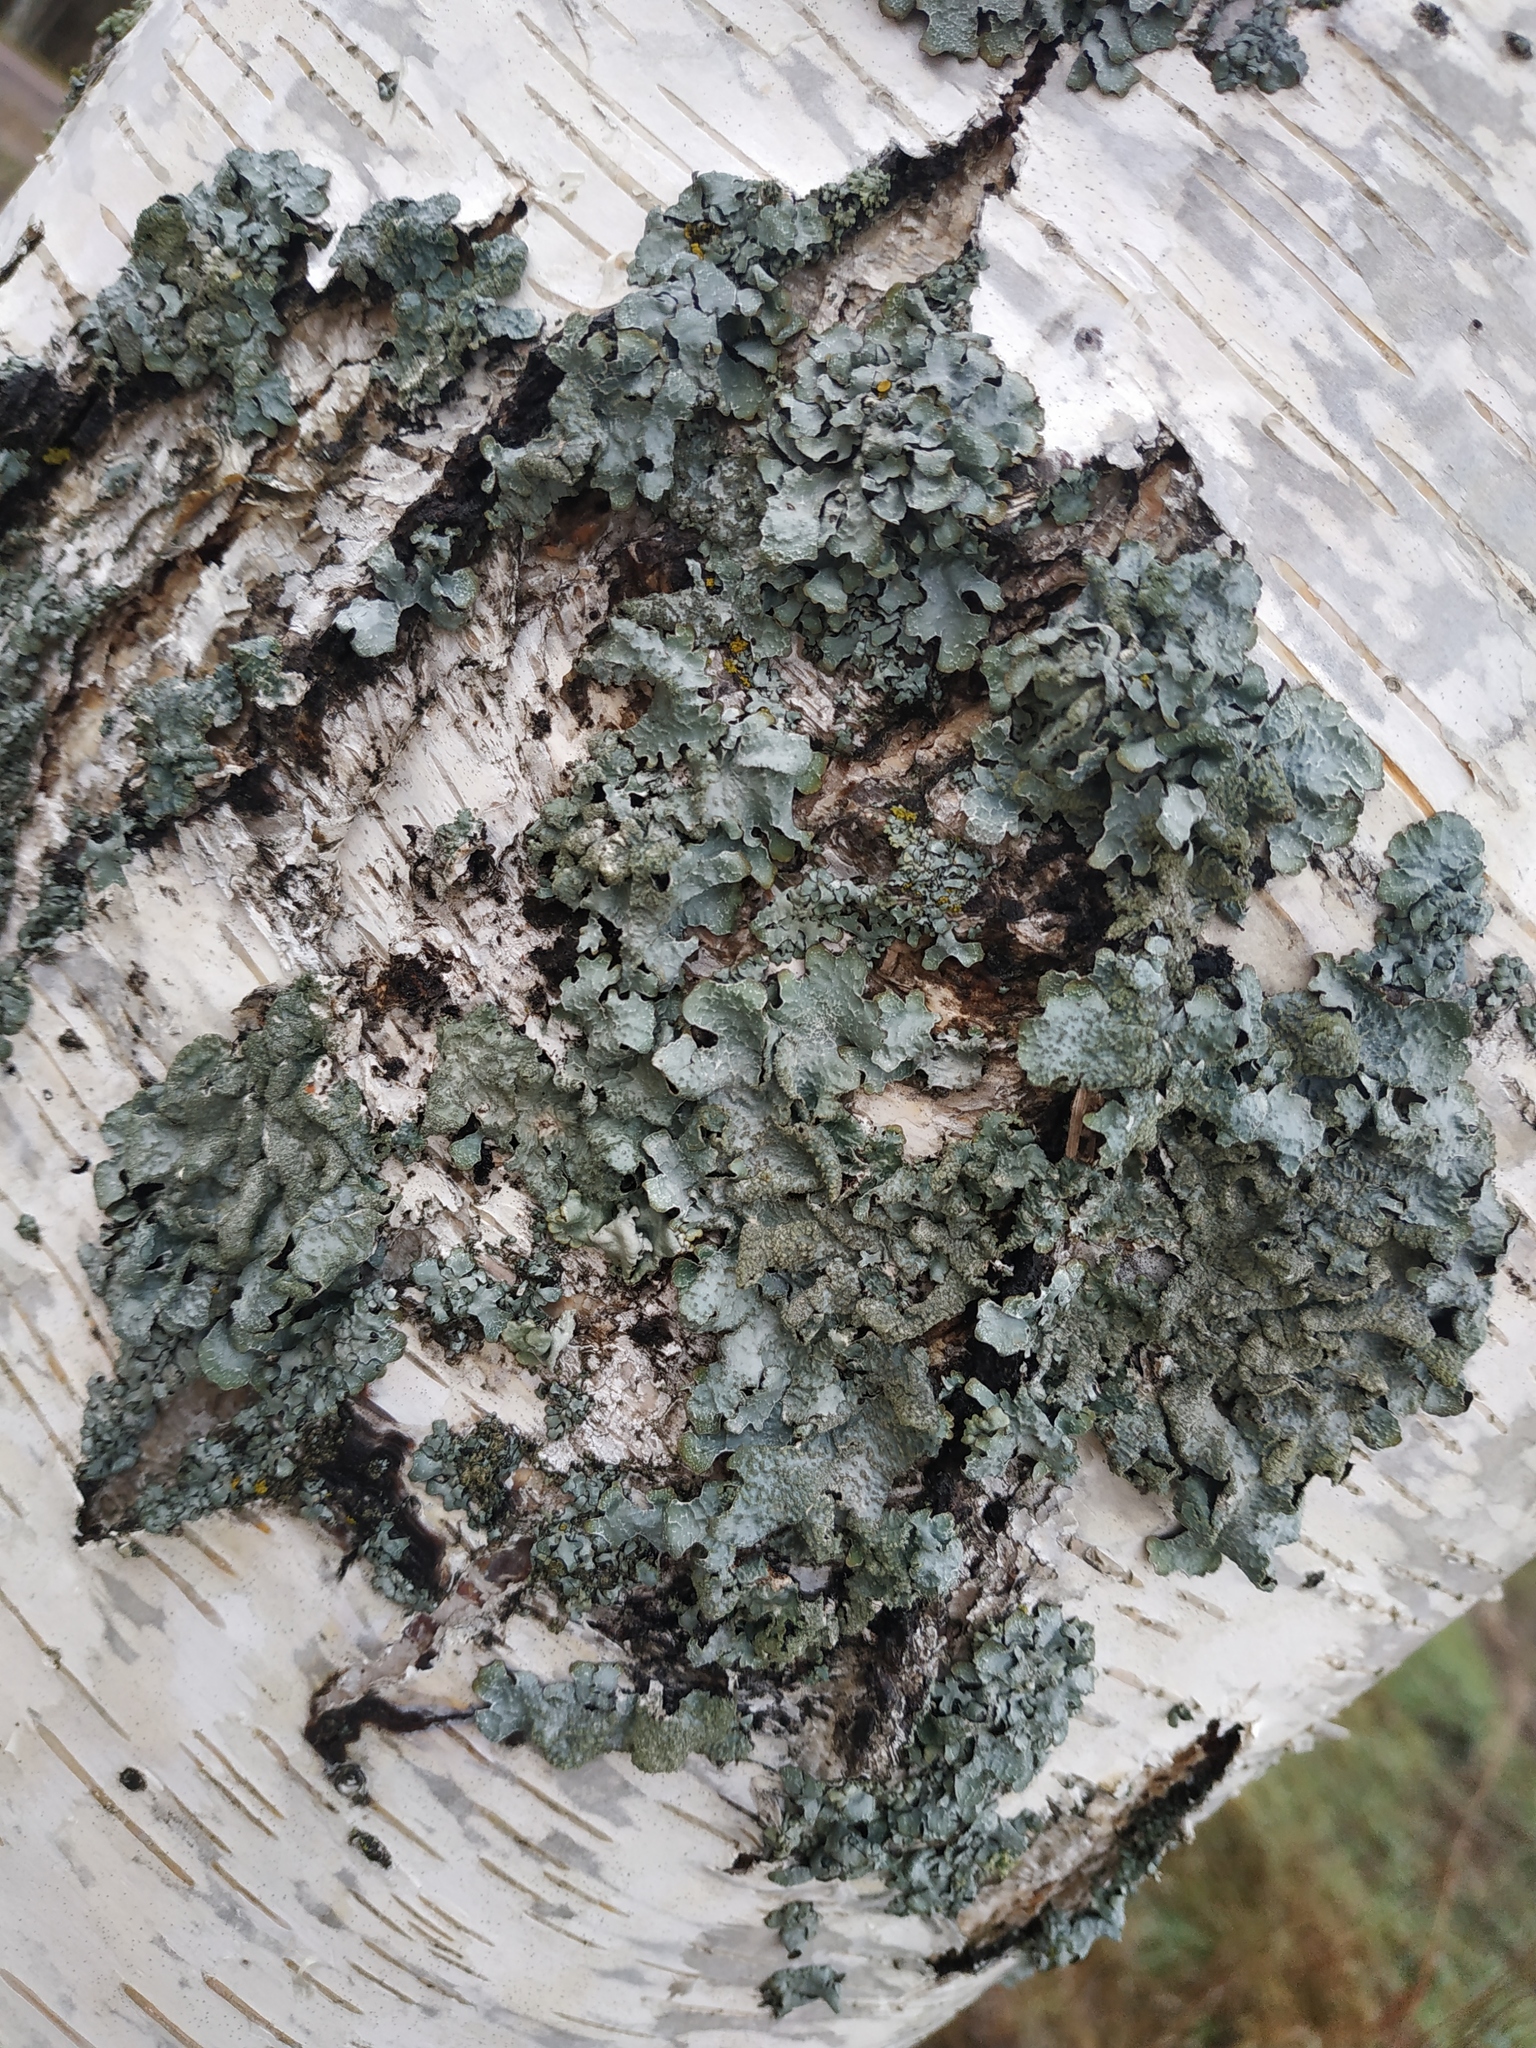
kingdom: Fungi
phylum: Ascomycota
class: Lecanoromycetes
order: Lecanorales
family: Parmeliaceae
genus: Parmelia
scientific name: Parmelia sulcata
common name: Netted shield lichen
